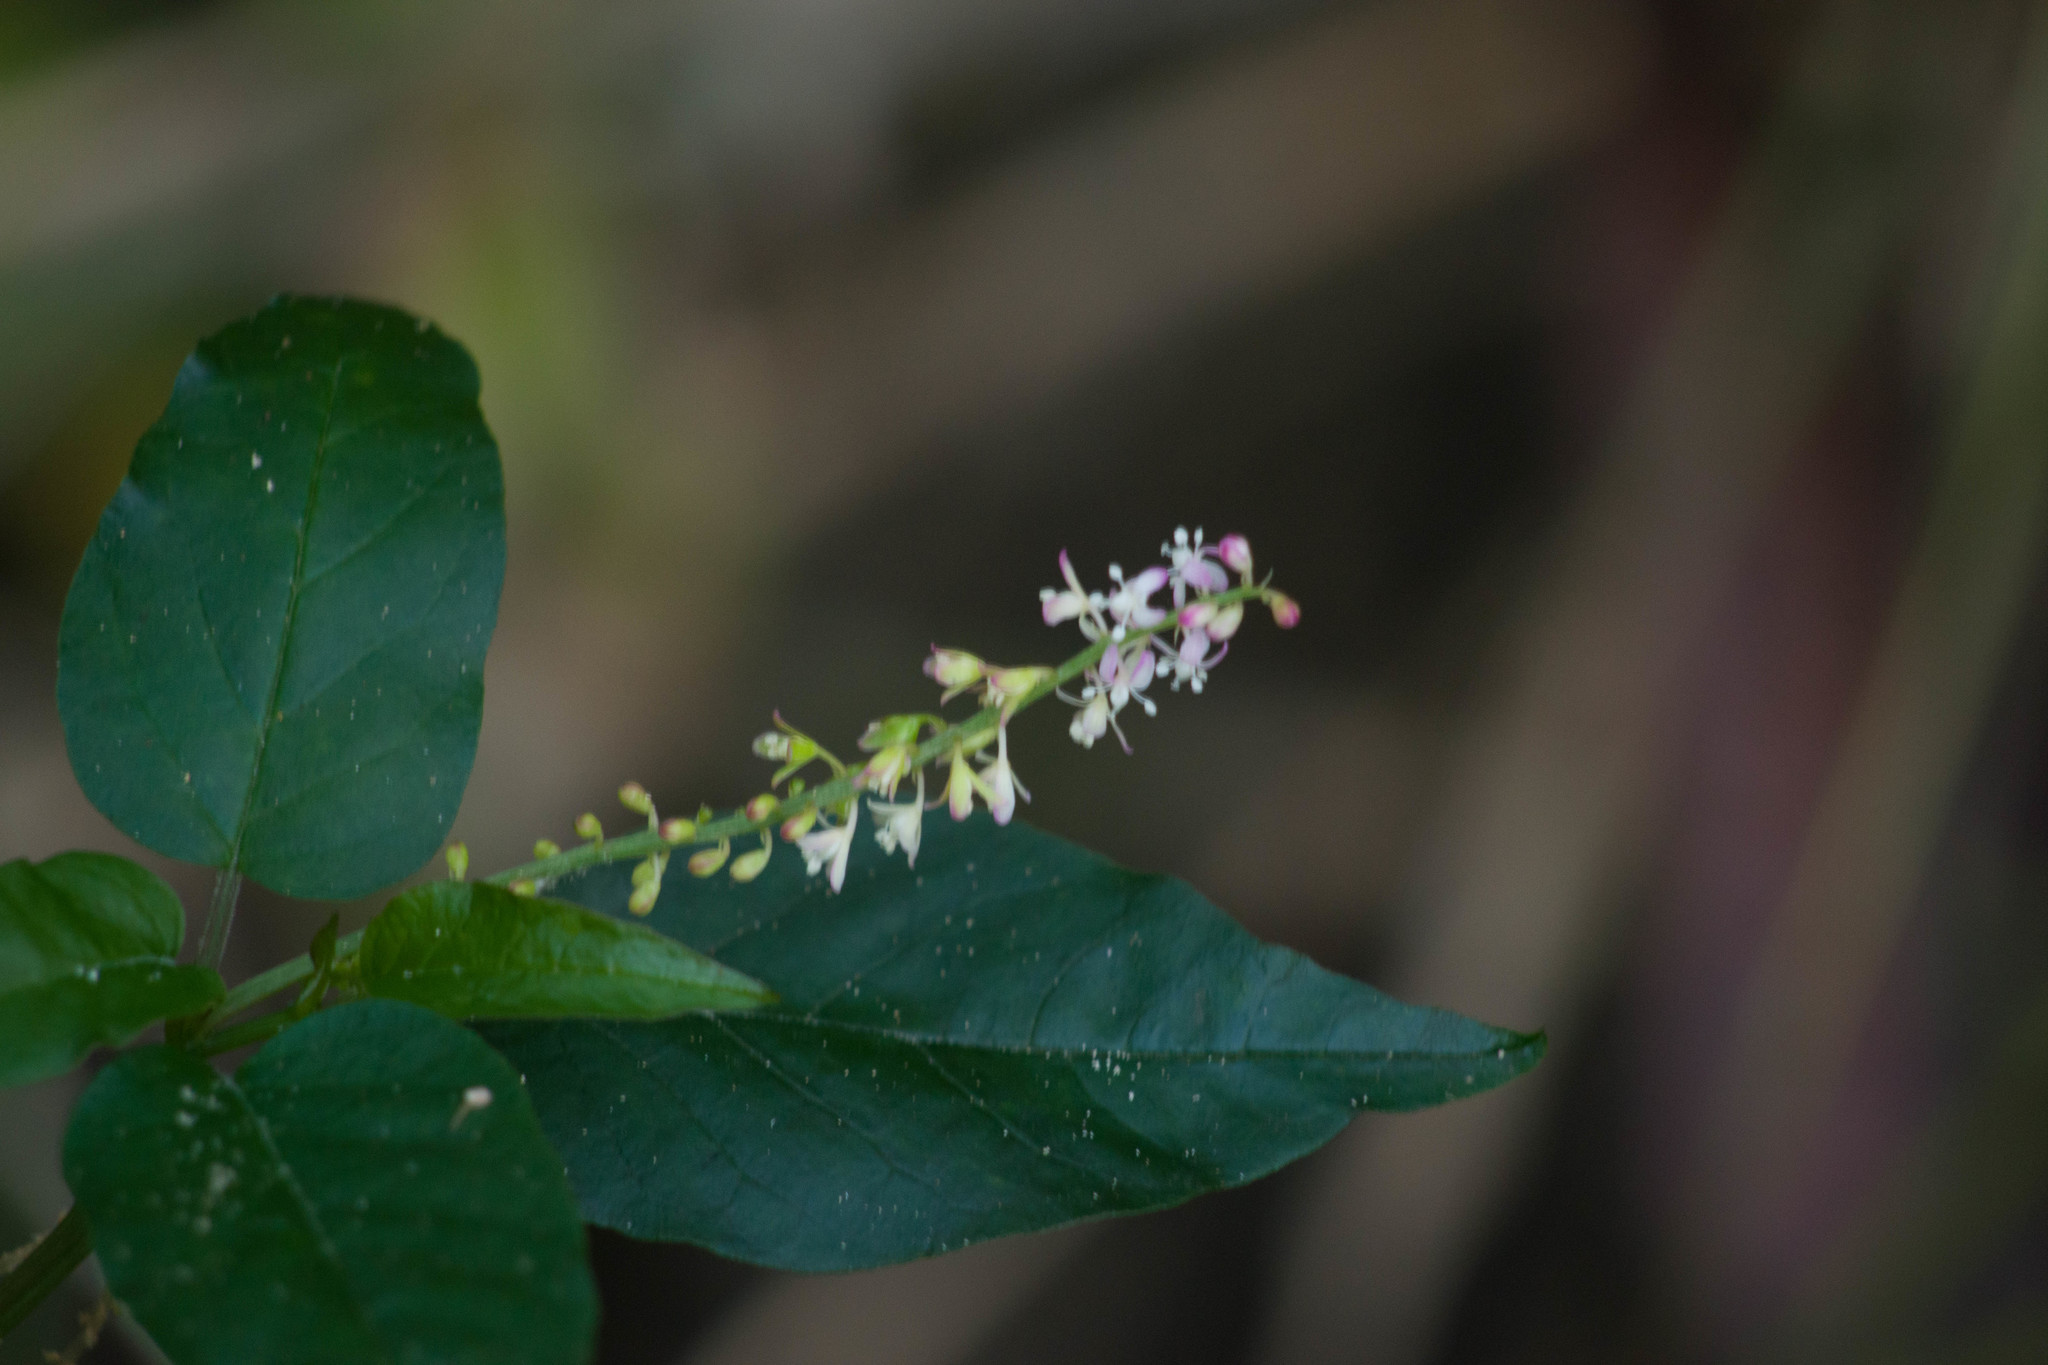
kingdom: Plantae
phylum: Tracheophyta
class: Magnoliopsida
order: Caryophyllales
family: Phytolaccaceae
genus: Rivina
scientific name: Rivina humilis
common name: Rougeplant
